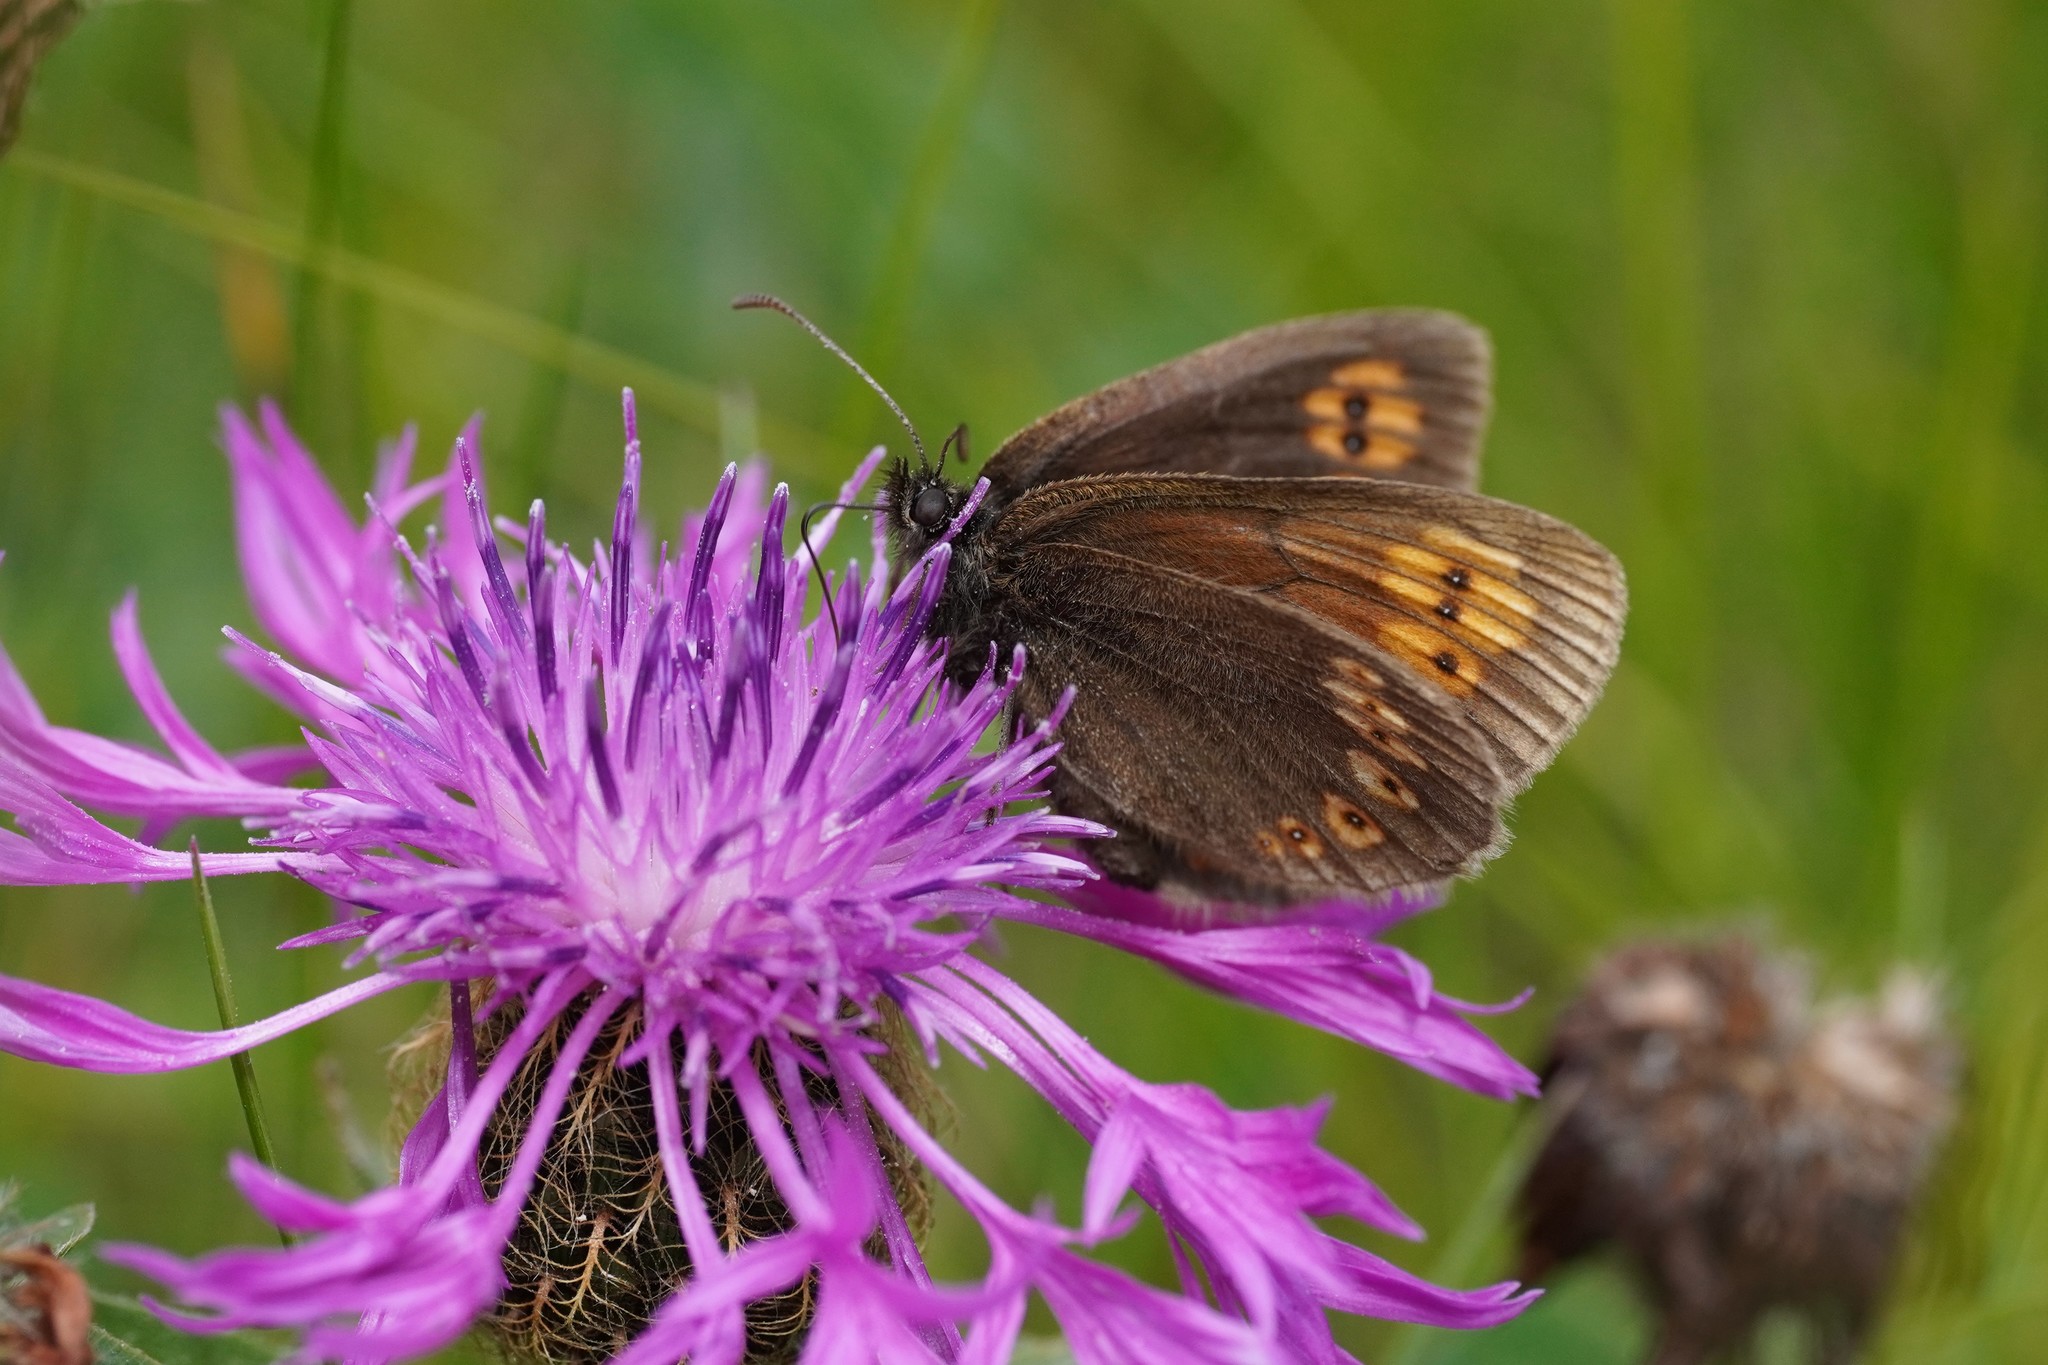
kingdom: Animalia
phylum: Arthropoda
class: Insecta
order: Lepidoptera
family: Nymphalidae
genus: Erebia
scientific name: Erebia alberganus
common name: Almond-eyed ringlet
